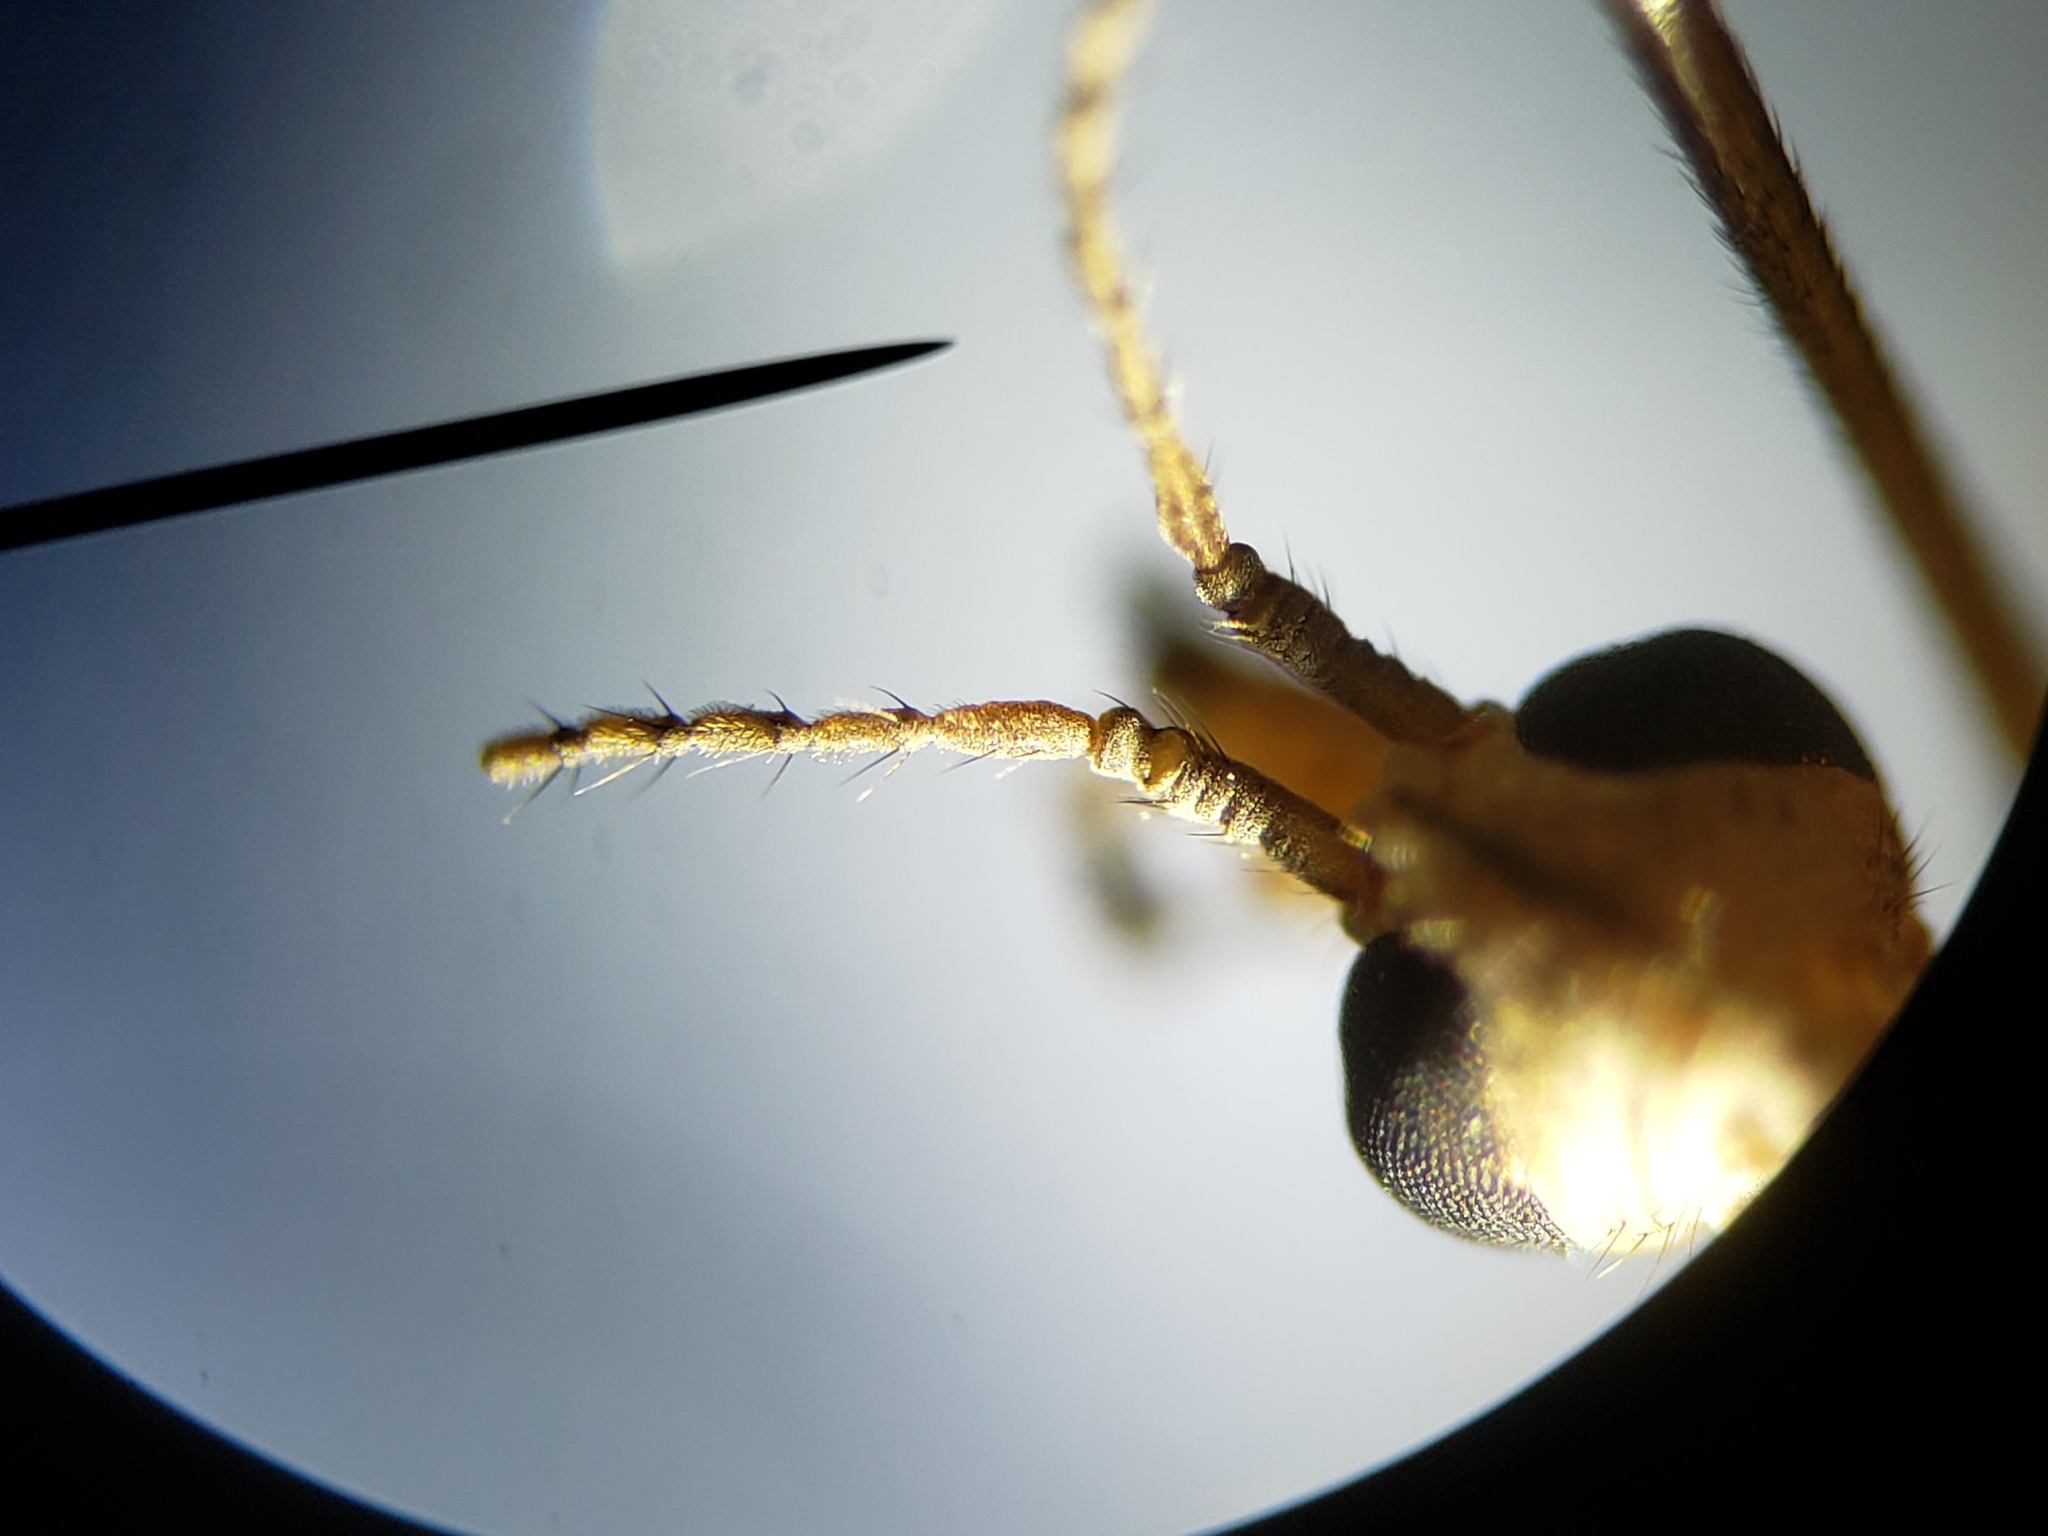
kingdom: Animalia
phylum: Arthropoda
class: Insecta
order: Diptera
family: Tipulidae
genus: Tipula
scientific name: Tipula furca
